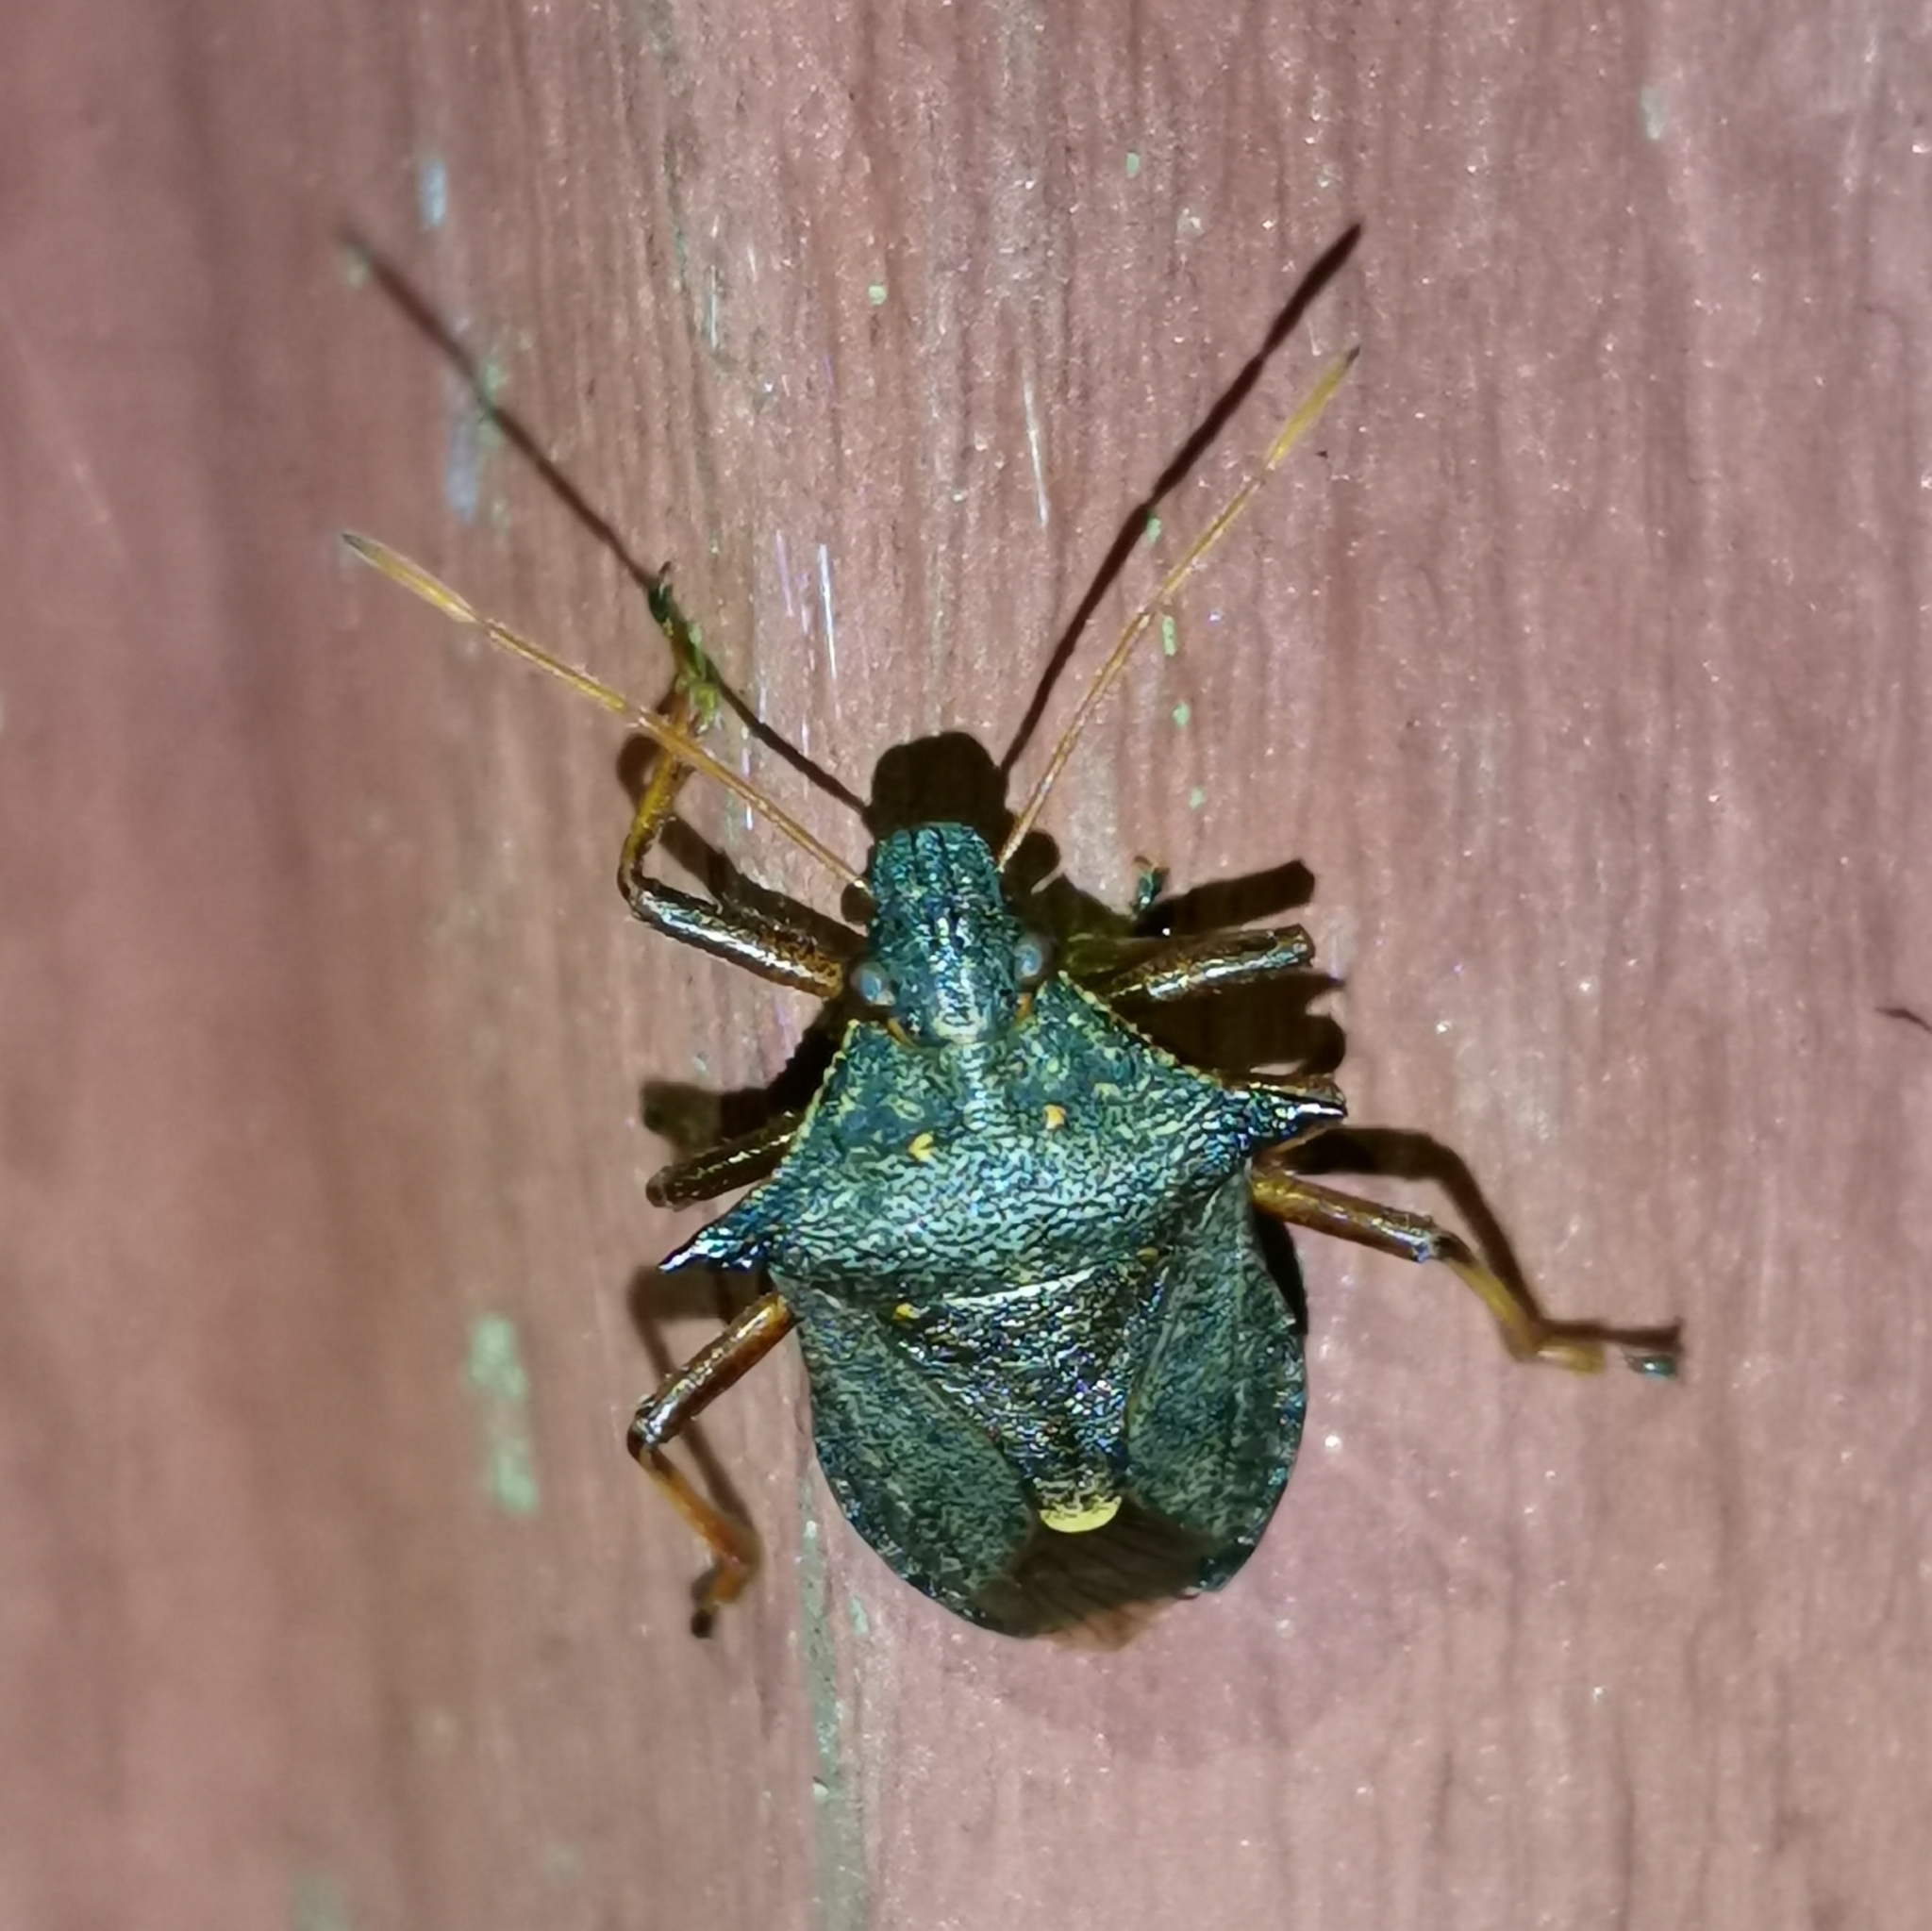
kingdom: Animalia
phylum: Arthropoda
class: Insecta
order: Hemiptera
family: Pentatomidae
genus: Picromerus
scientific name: Picromerus bidens
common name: Spiked shieldbug
